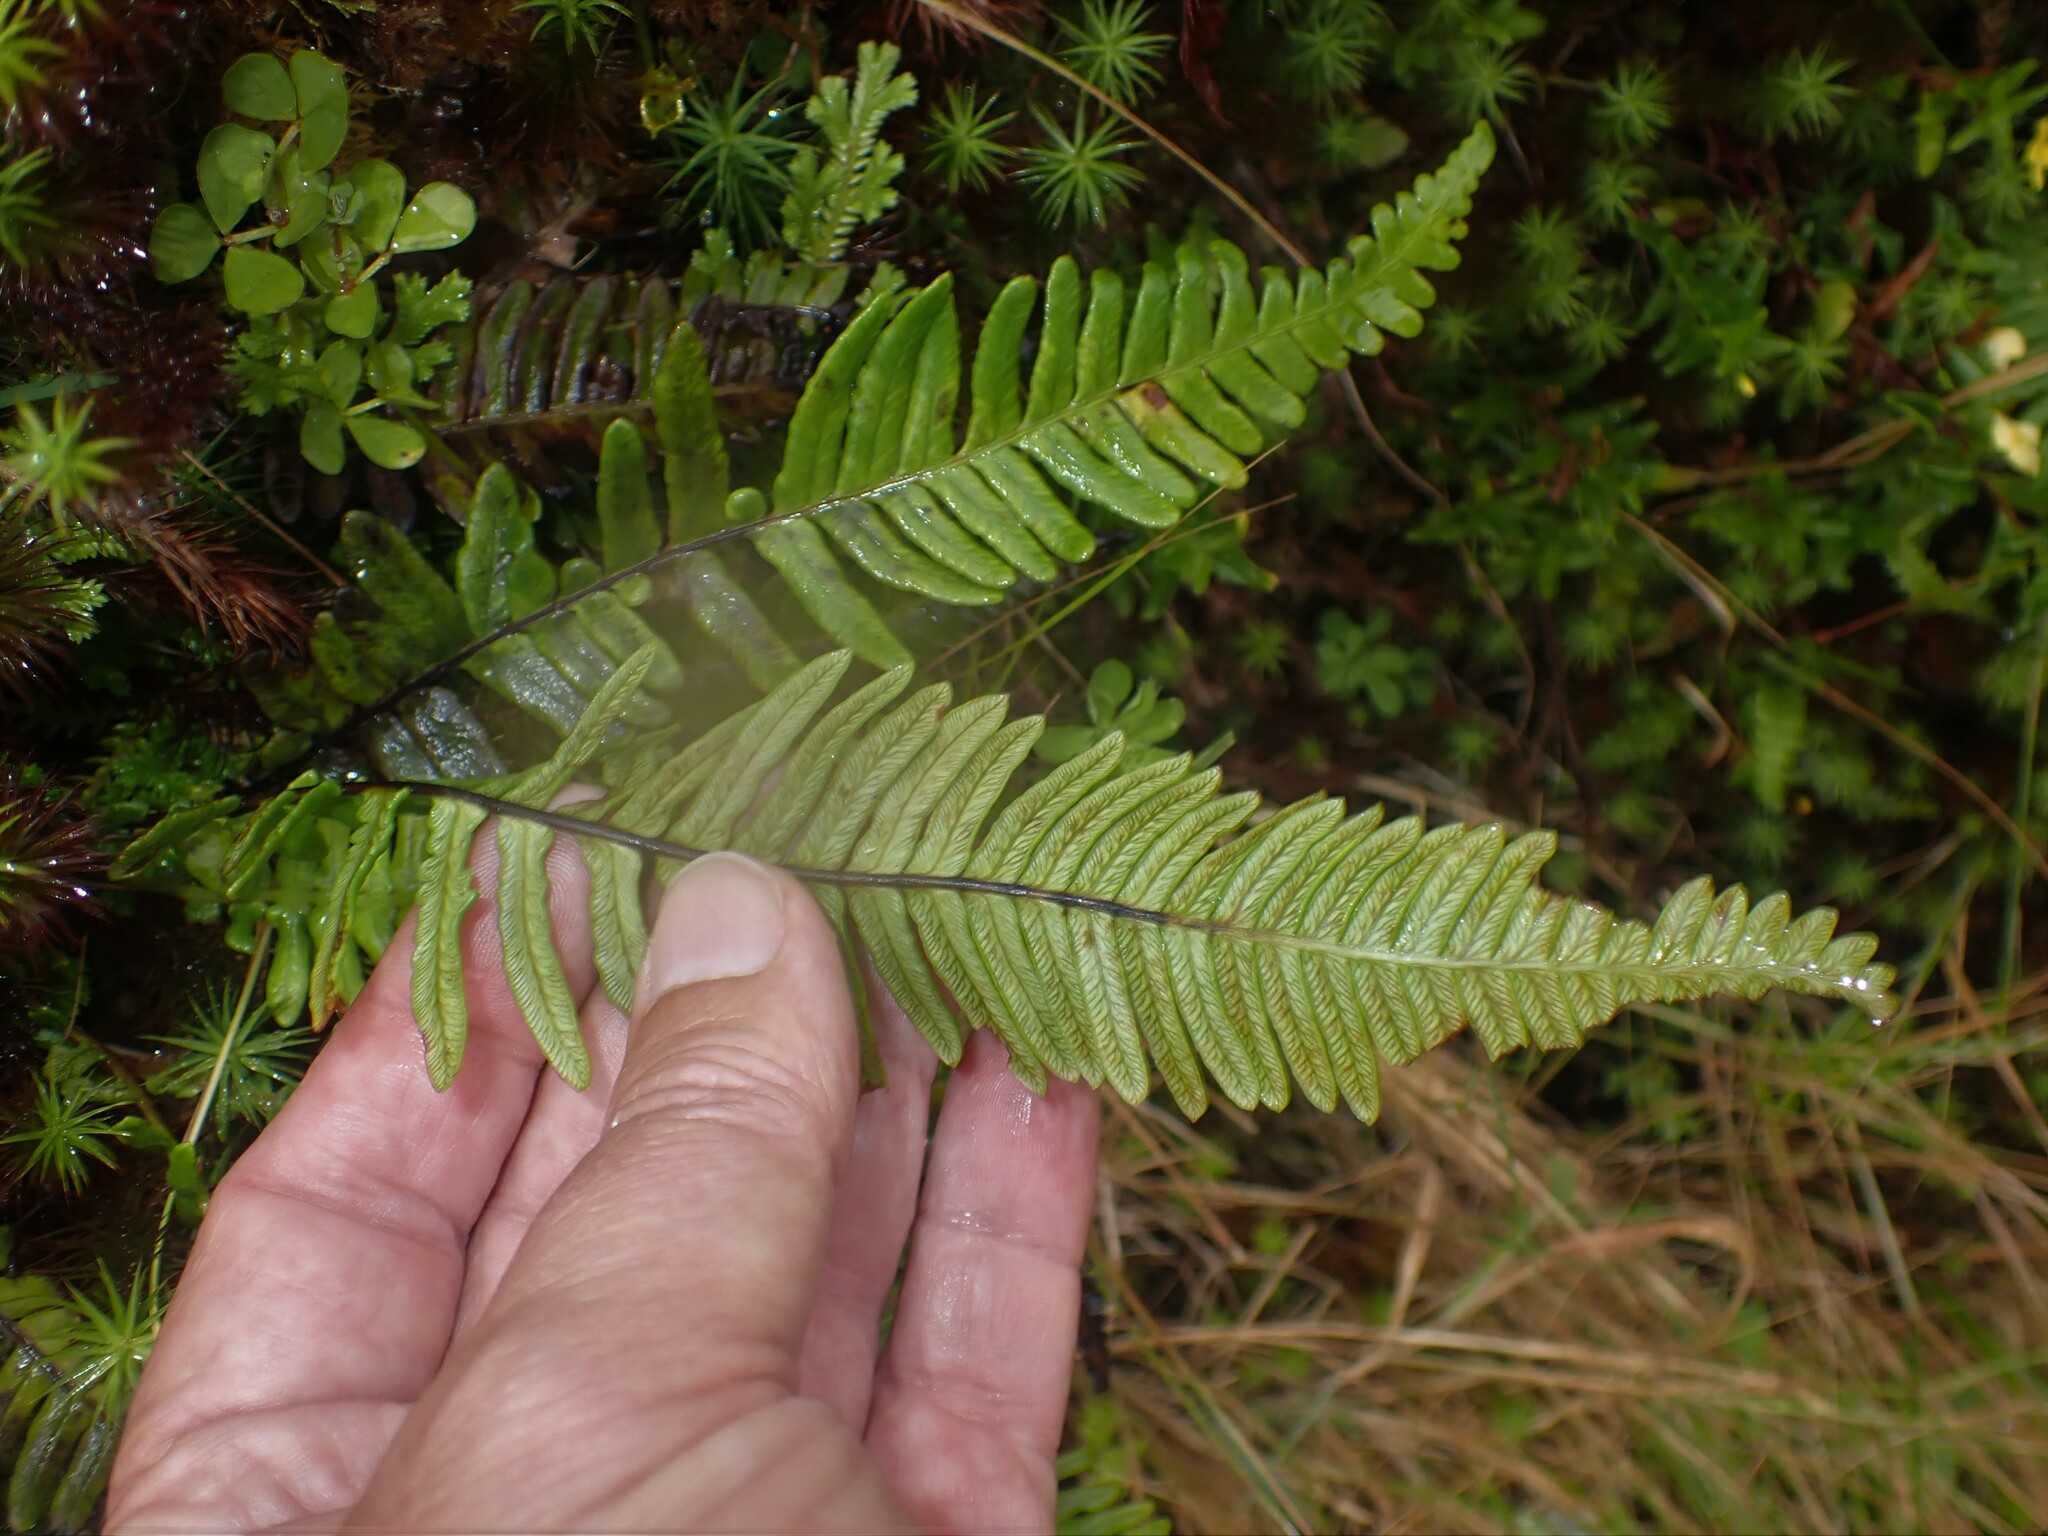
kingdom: Plantae
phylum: Tracheophyta
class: Polypodiopsida
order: Polypodiales
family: Blechnaceae
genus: Struthiopteris
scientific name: Struthiopteris spicant
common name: Deer fern
